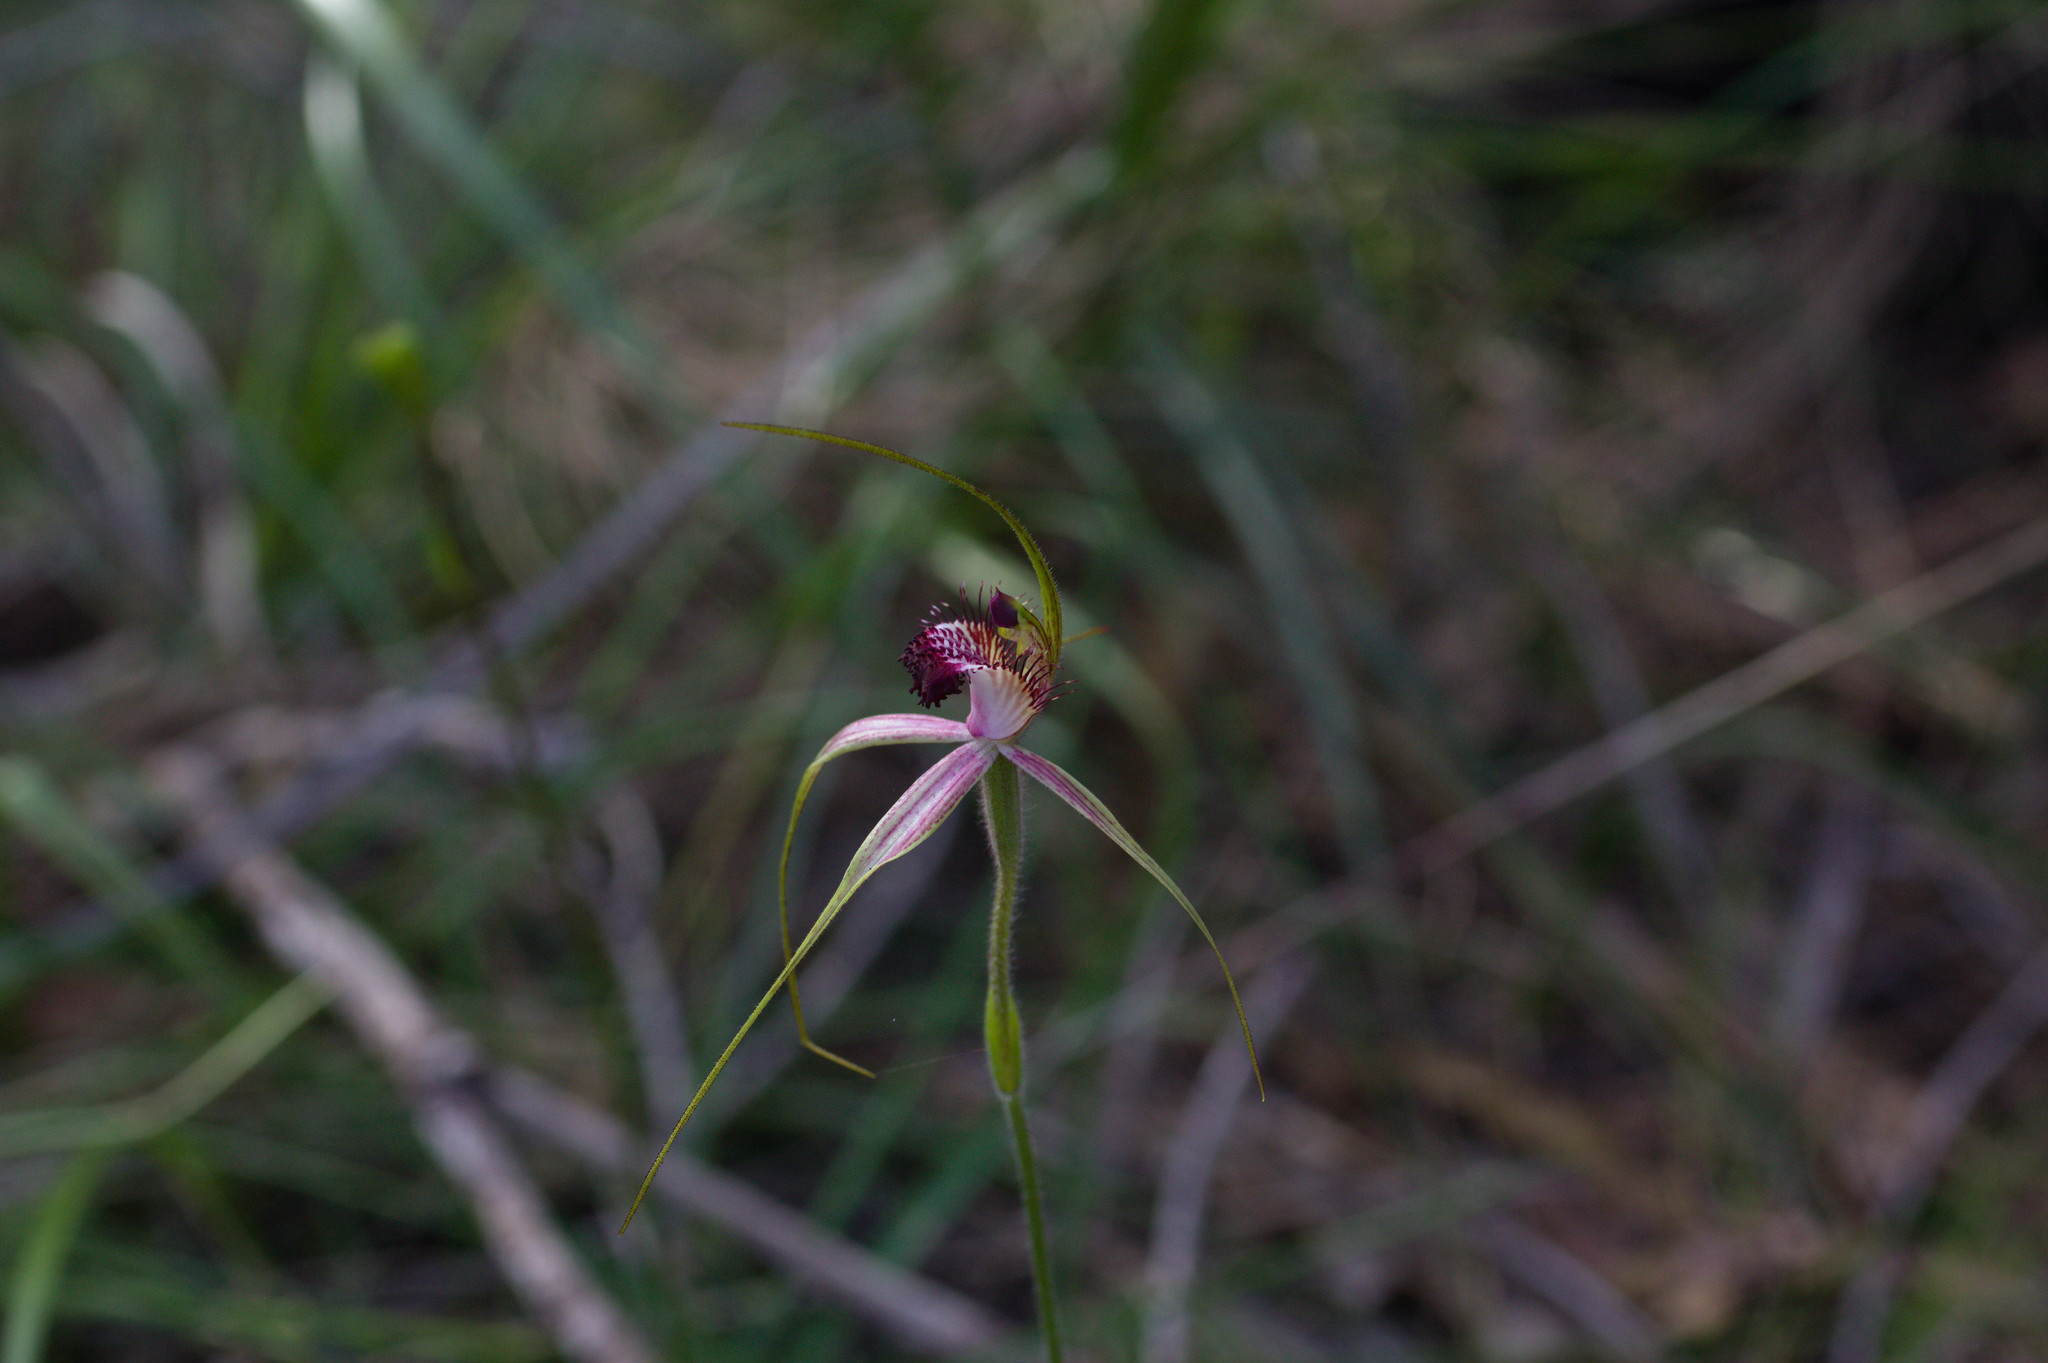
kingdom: Plantae
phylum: Tracheophyta
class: Liliopsida
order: Asparagales
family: Orchidaceae
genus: Caladenia
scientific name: Caladenia arenicola
